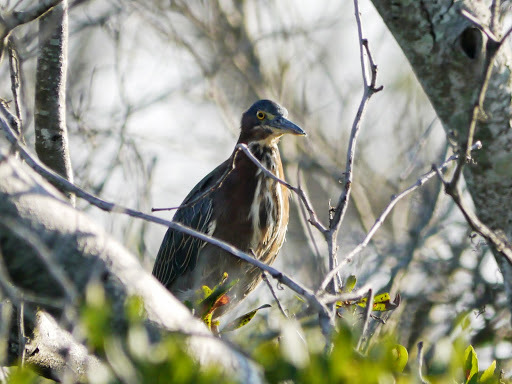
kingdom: Animalia
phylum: Chordata
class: Aves
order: Pelecaniformes
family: Ardeidae
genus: Butorides
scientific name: Butorides virescens
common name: Green heron
